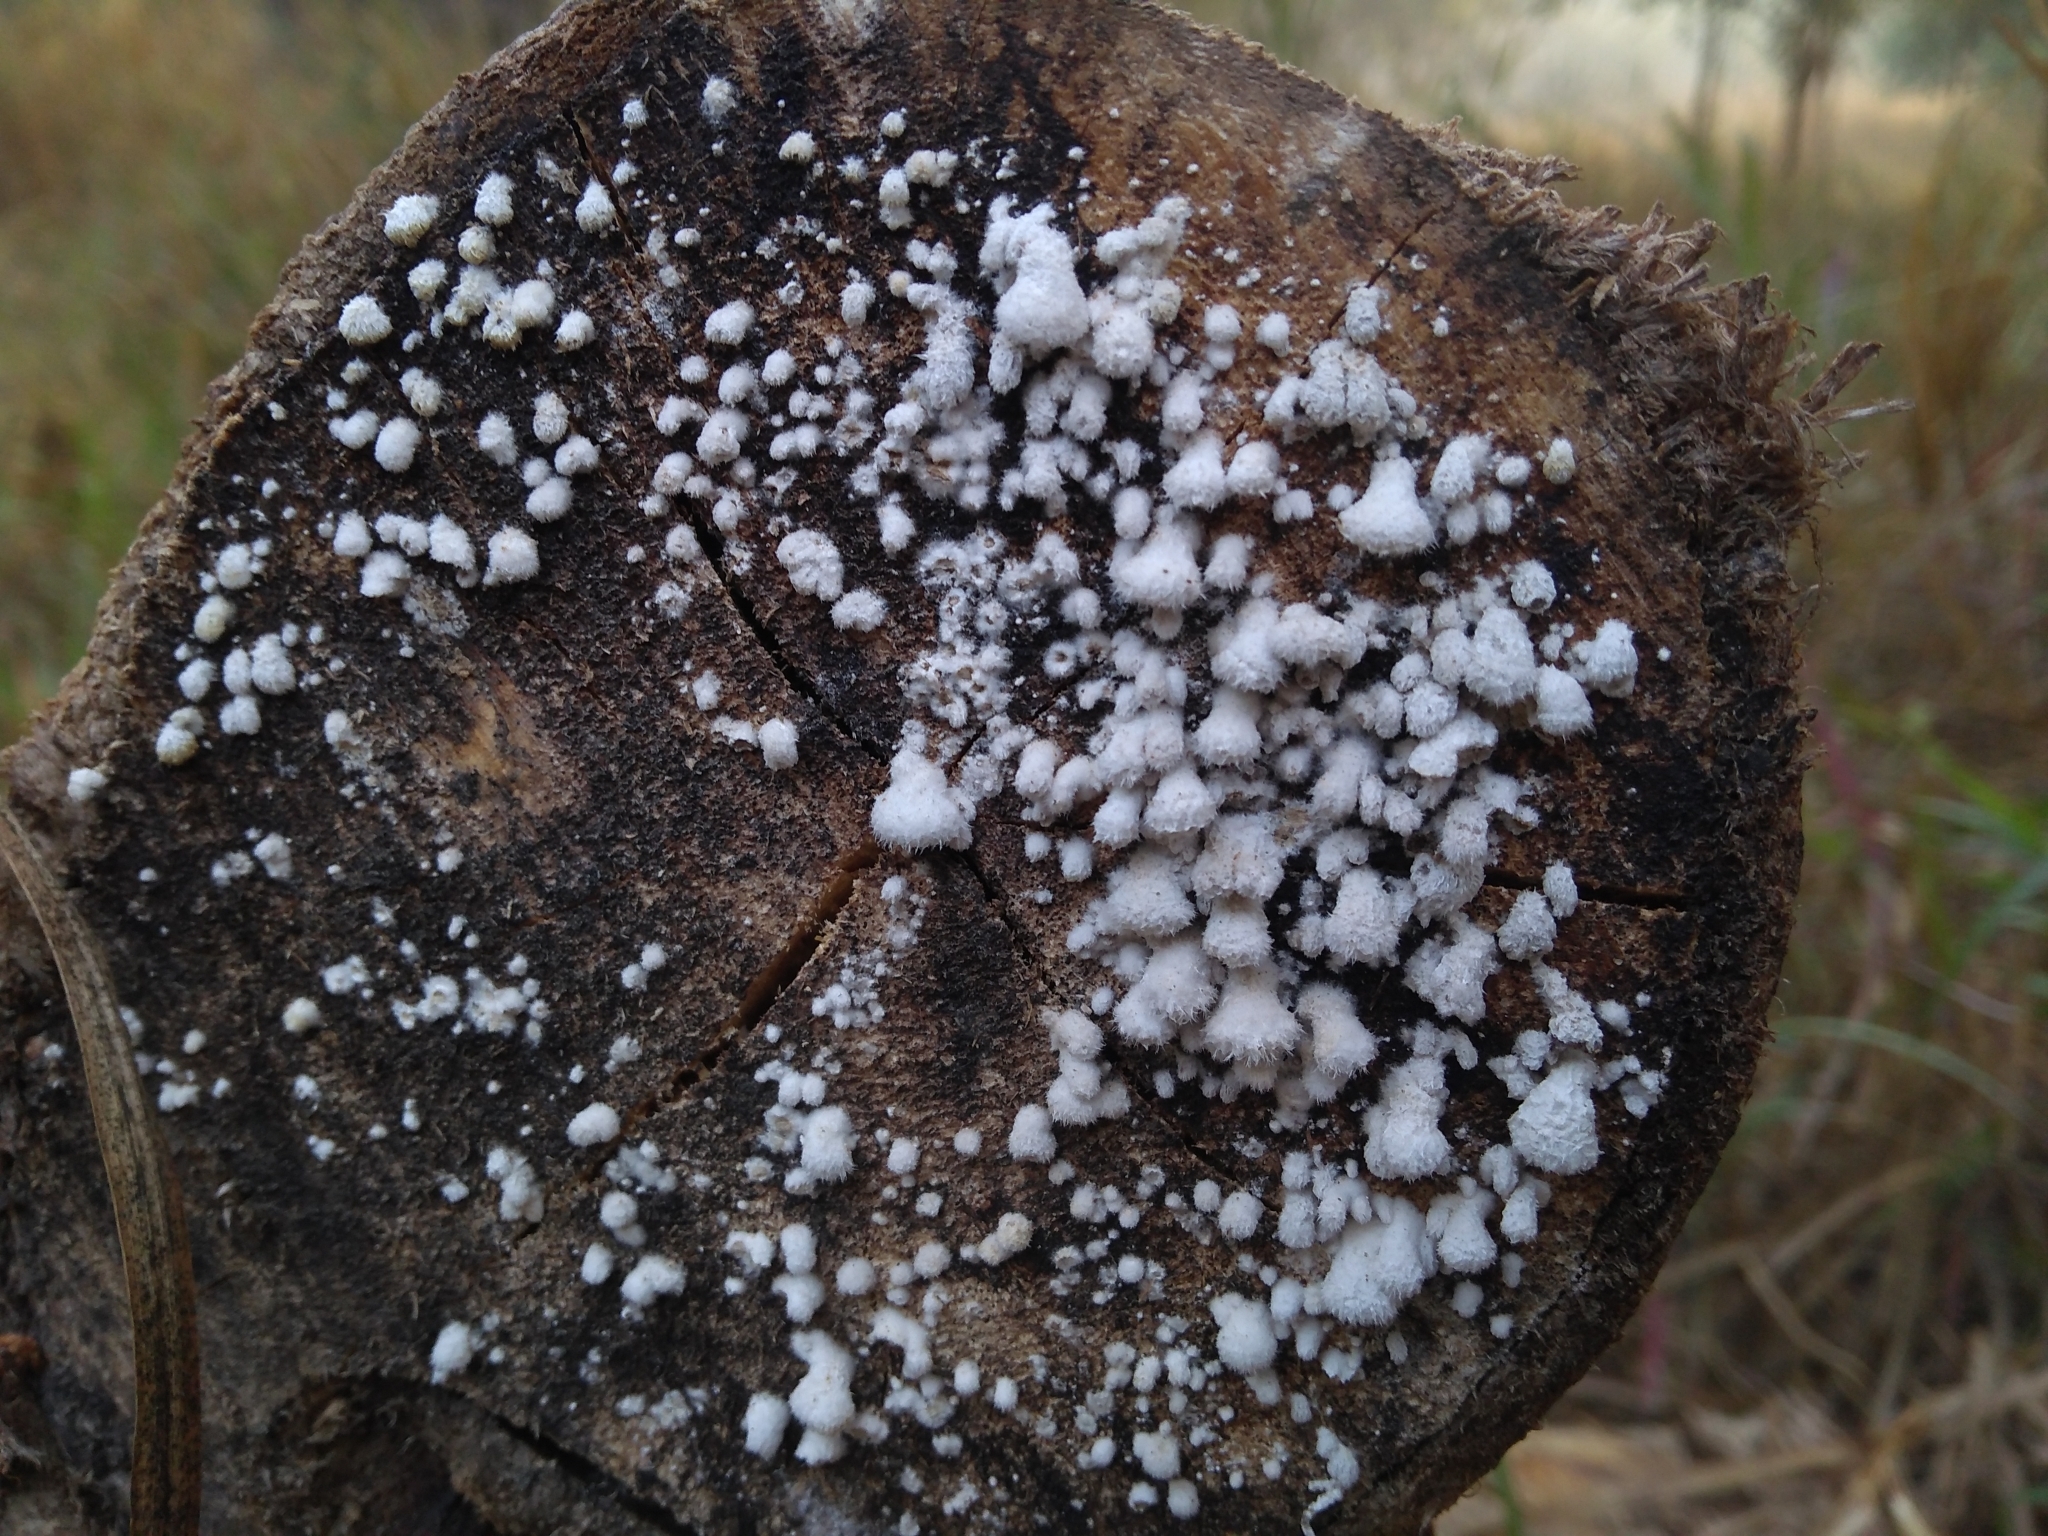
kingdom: Fungi
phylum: Basidiomycota
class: Agaricomycetes
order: Agaricales
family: Schizophyllaceae
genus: Schizophyllum
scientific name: Schizophyllum commune
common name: Common porecrust
